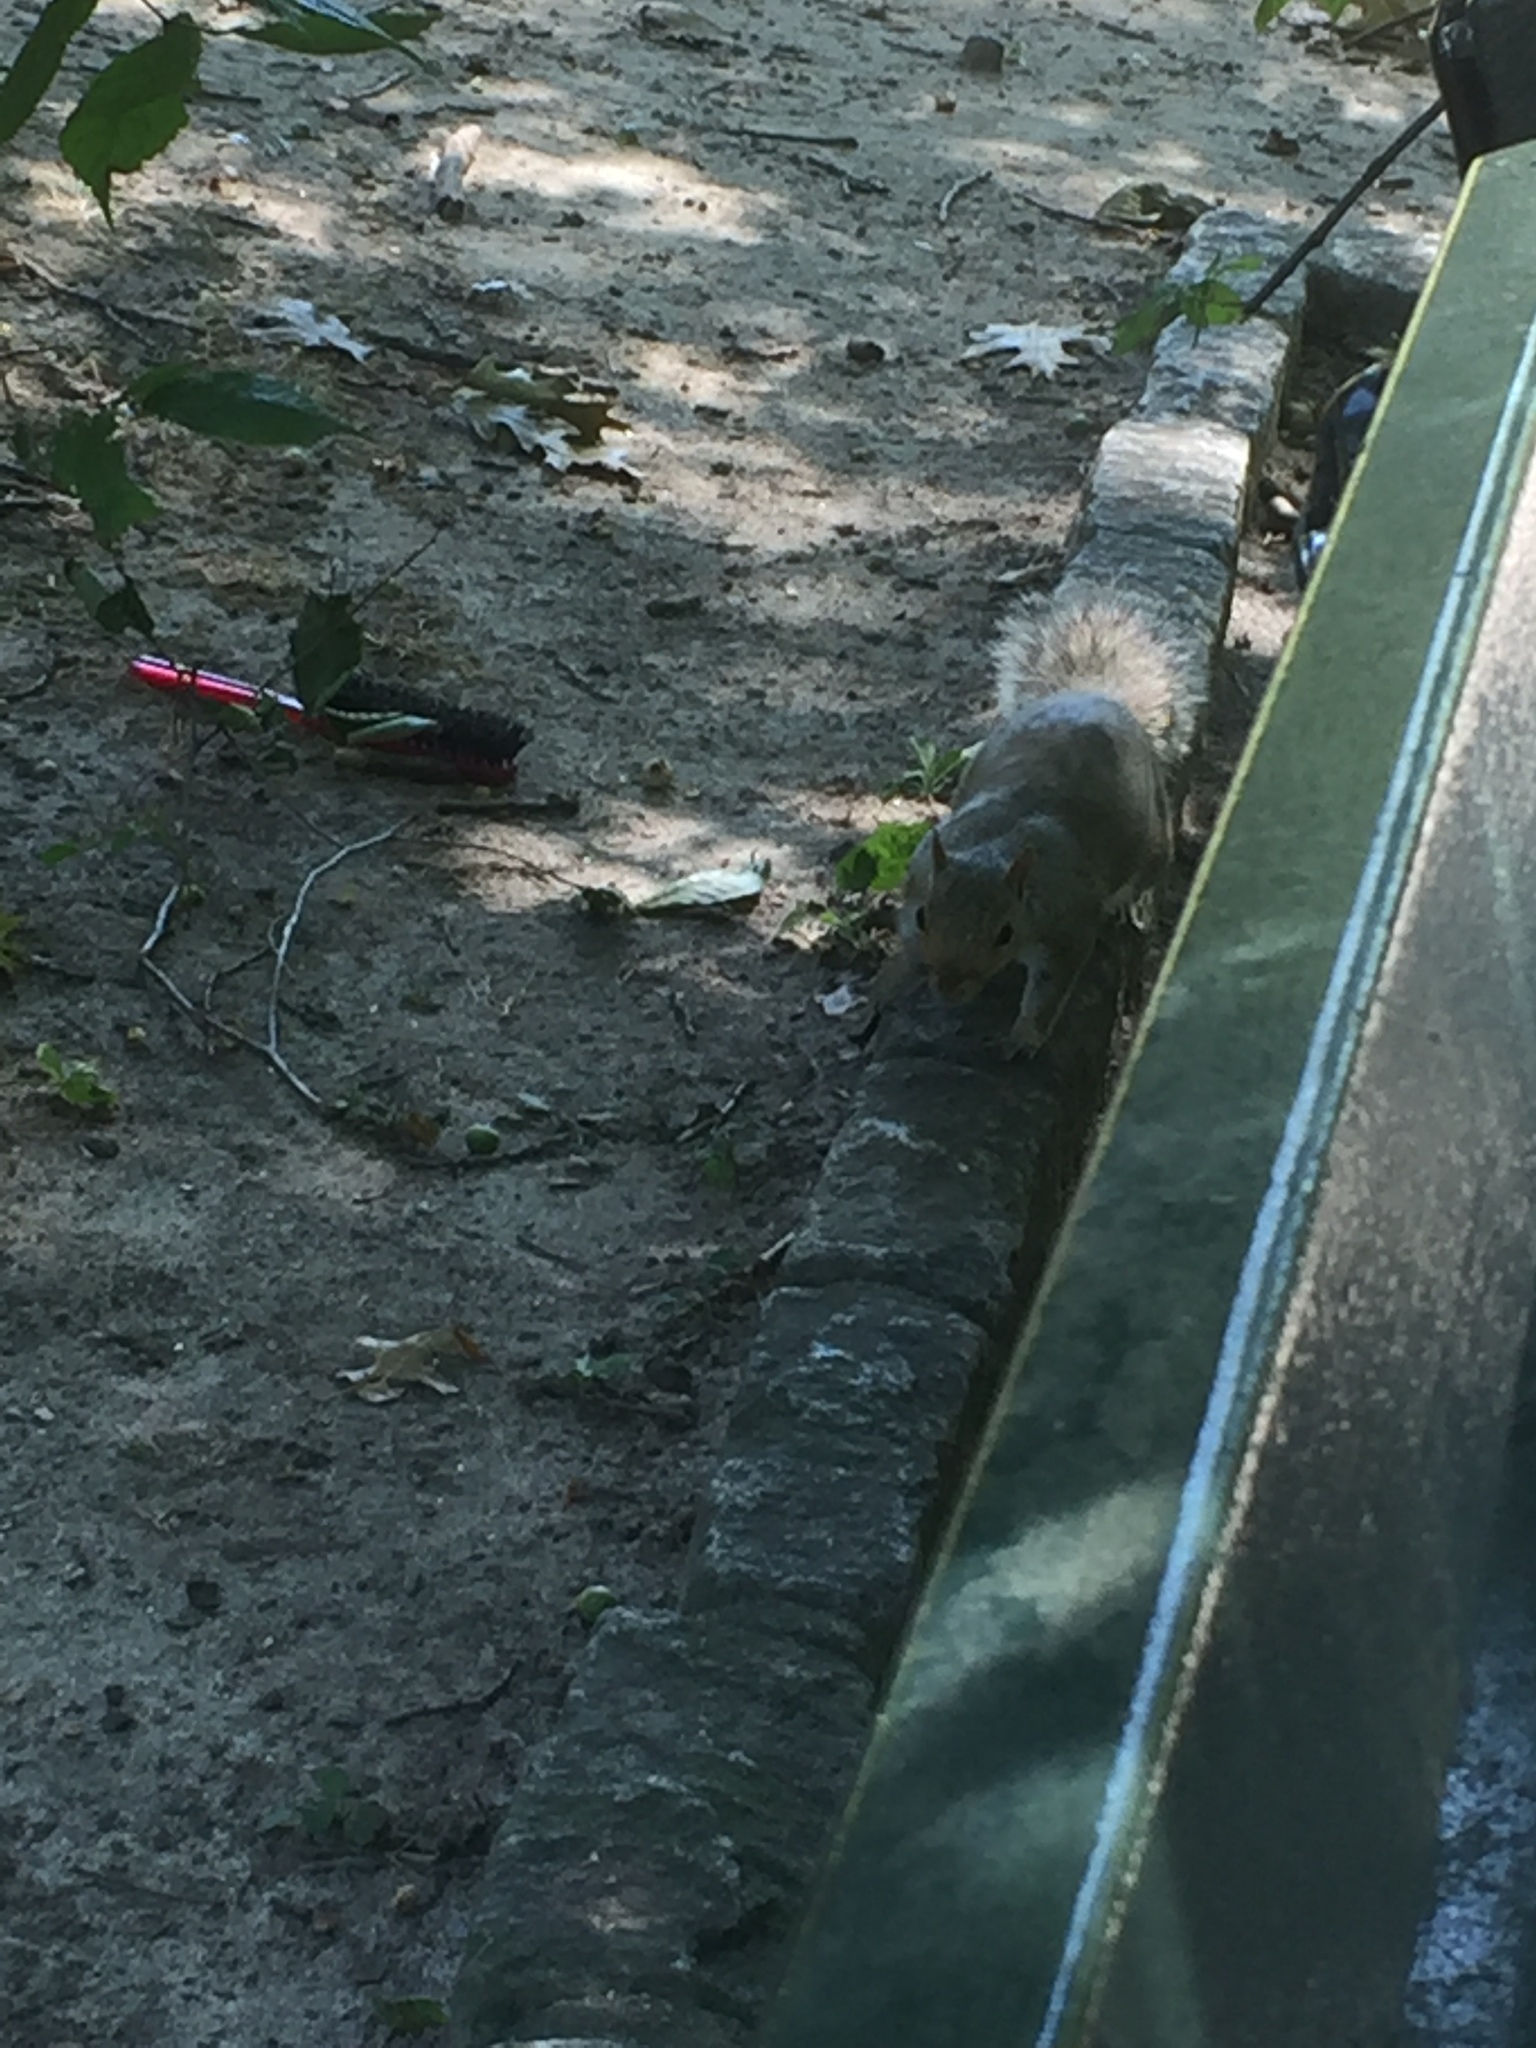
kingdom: Animalia
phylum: Chordata
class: Mammalia
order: Rodentia
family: Sciuridae
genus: Sciurus
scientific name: Sciurus carolinensis
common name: Eastern gray squirrel
